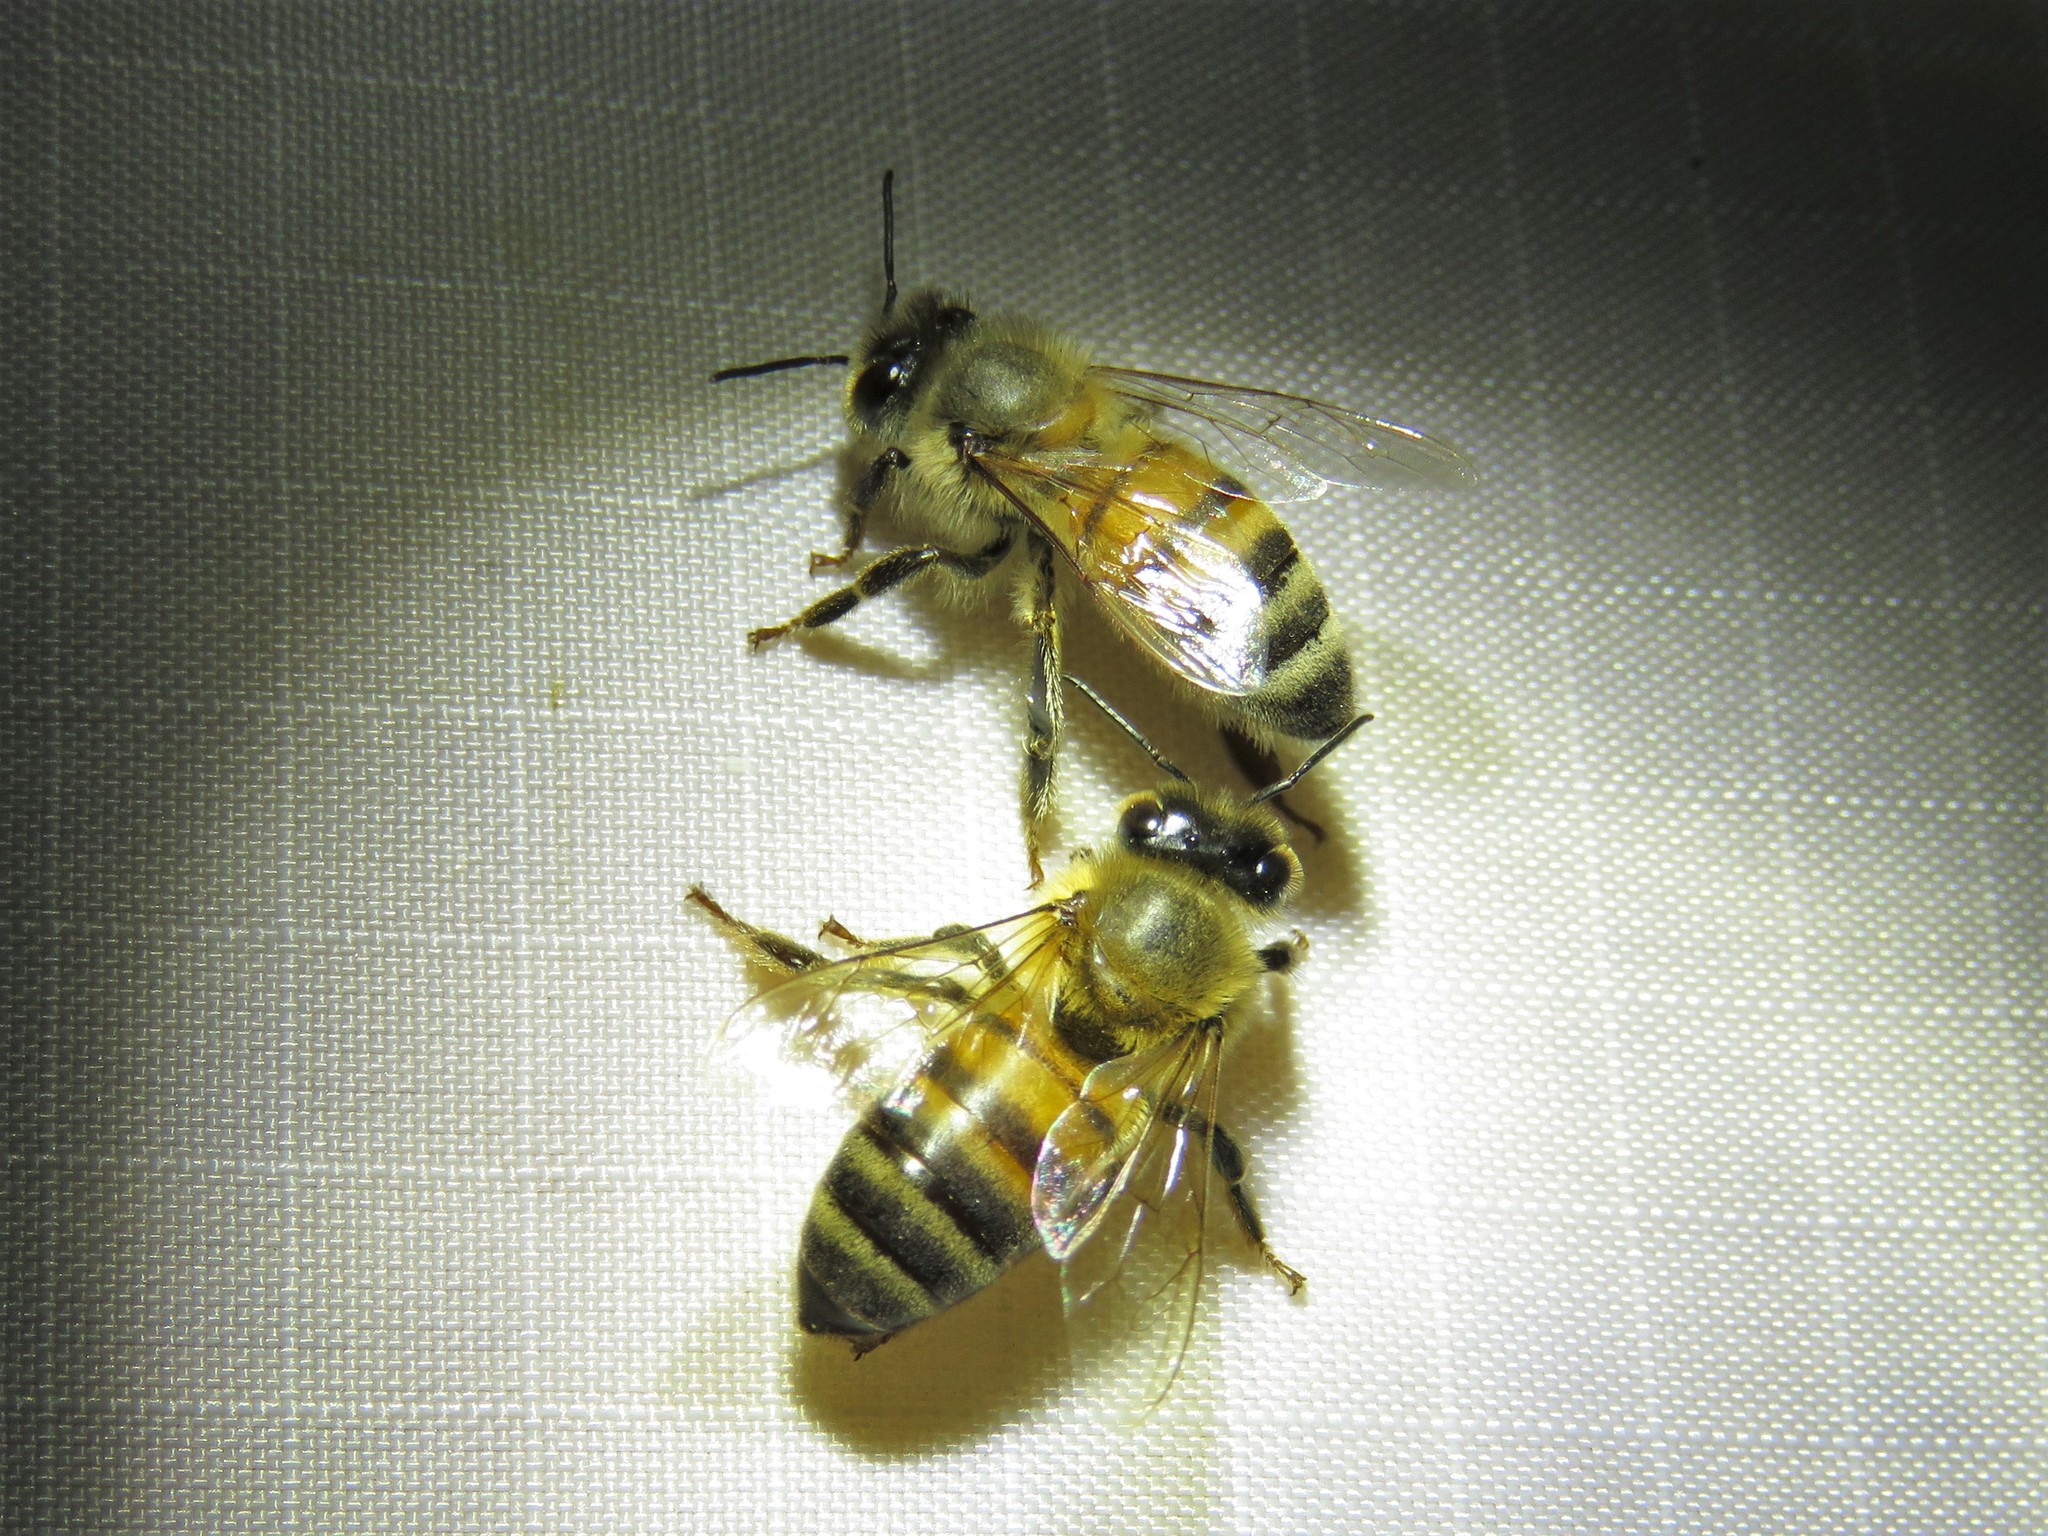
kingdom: Animalia
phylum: Arthropoda
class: Insecta
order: Hymenoptera
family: Apidae
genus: Apis
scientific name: Apis mellifera
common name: Honey bee
